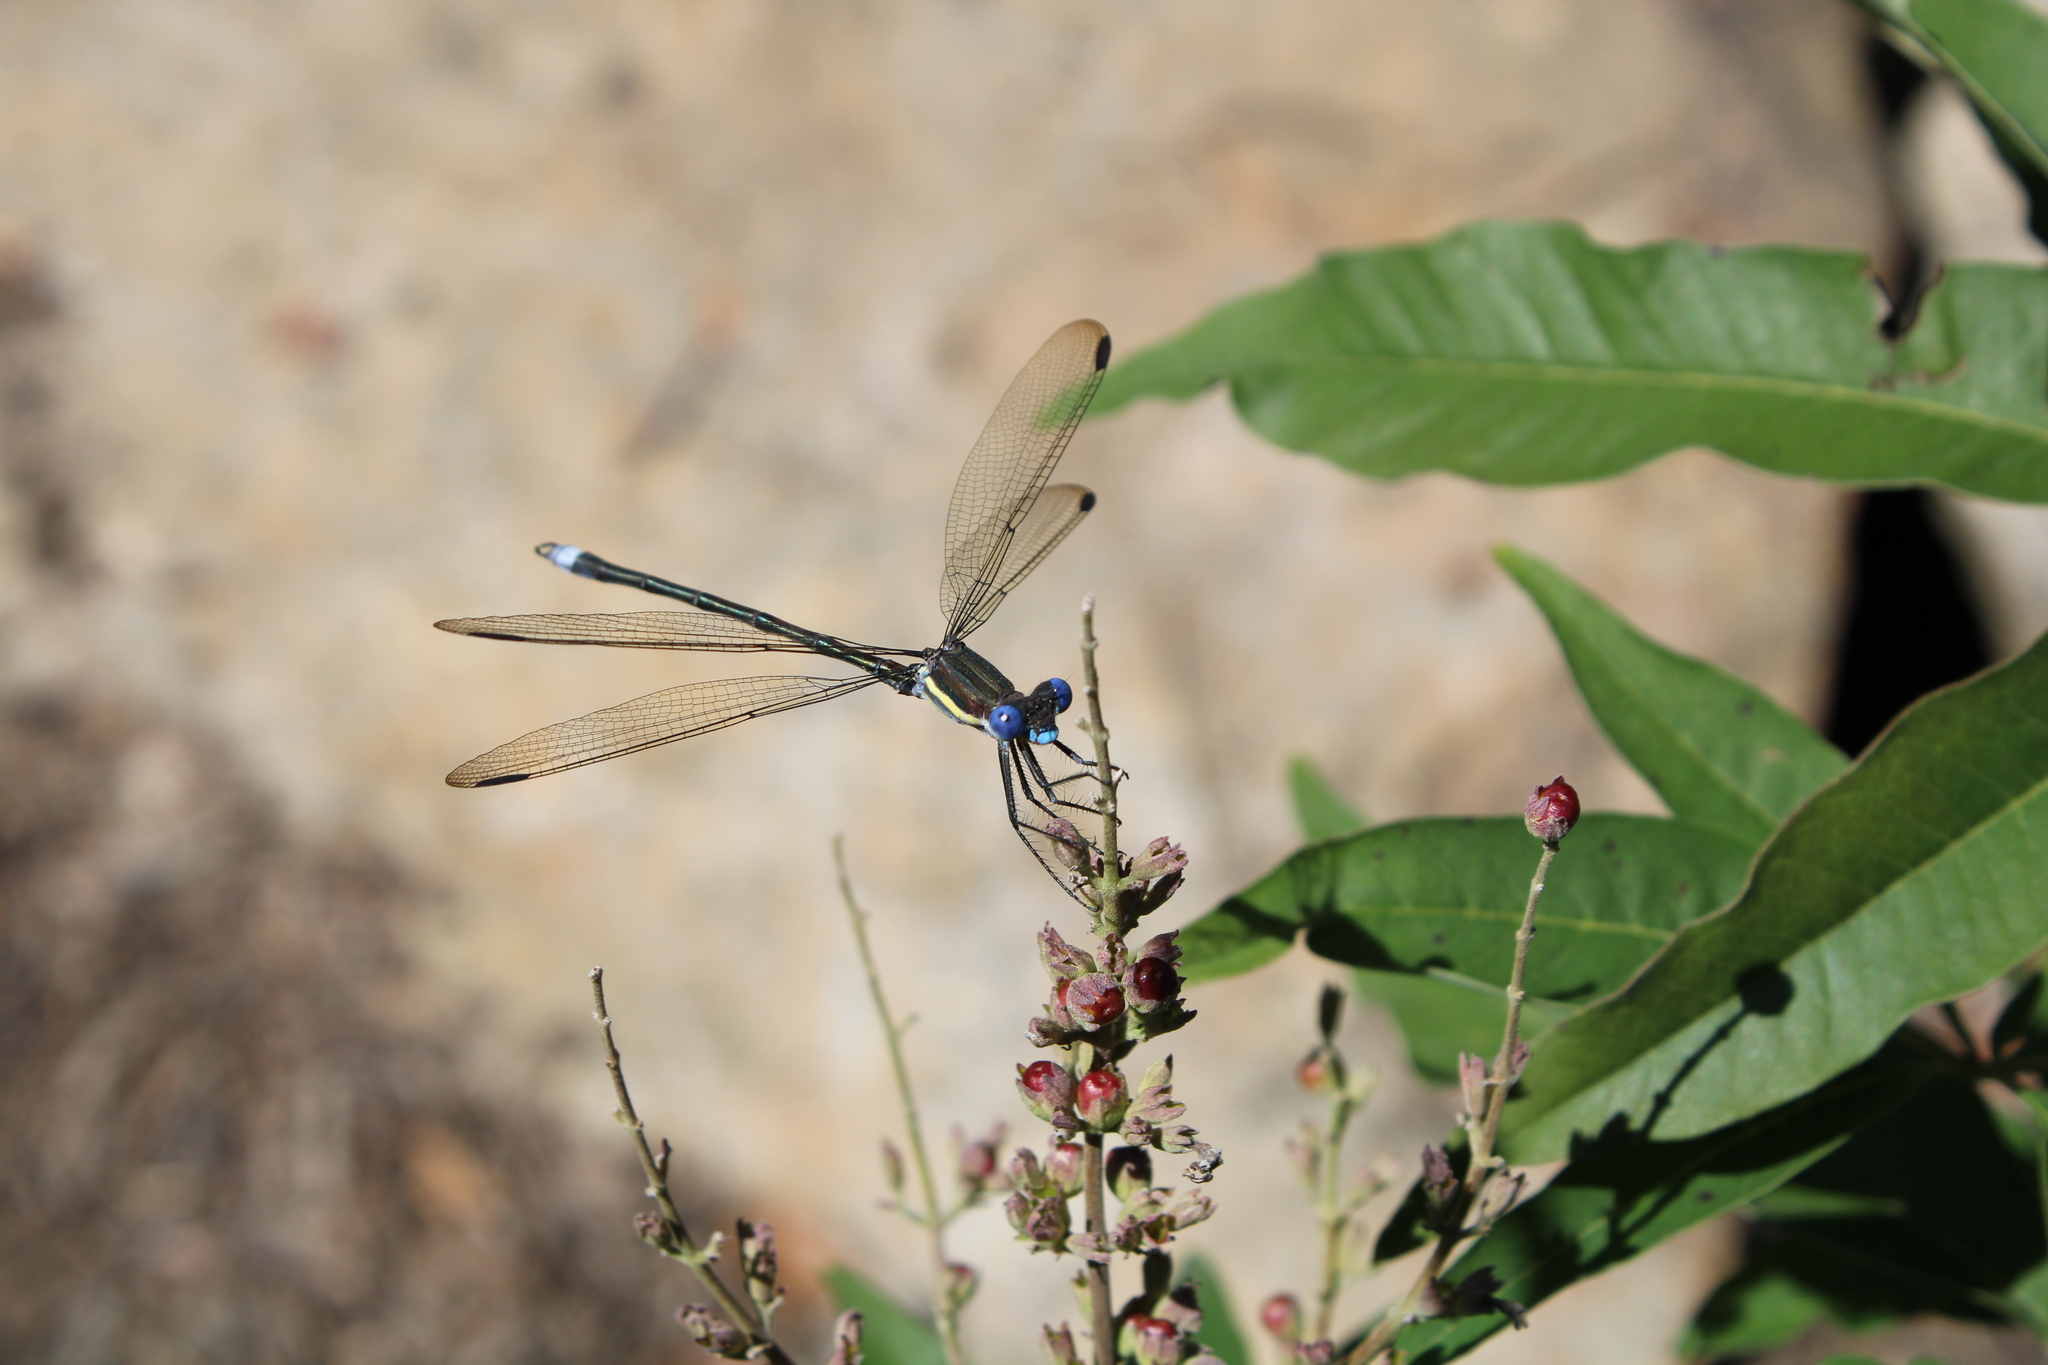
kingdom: Animalia
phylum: Arthropoda
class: Insecta
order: Odonata
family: Lestidae
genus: Archilestes
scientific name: Archilestes grandis
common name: Great spreadwing
